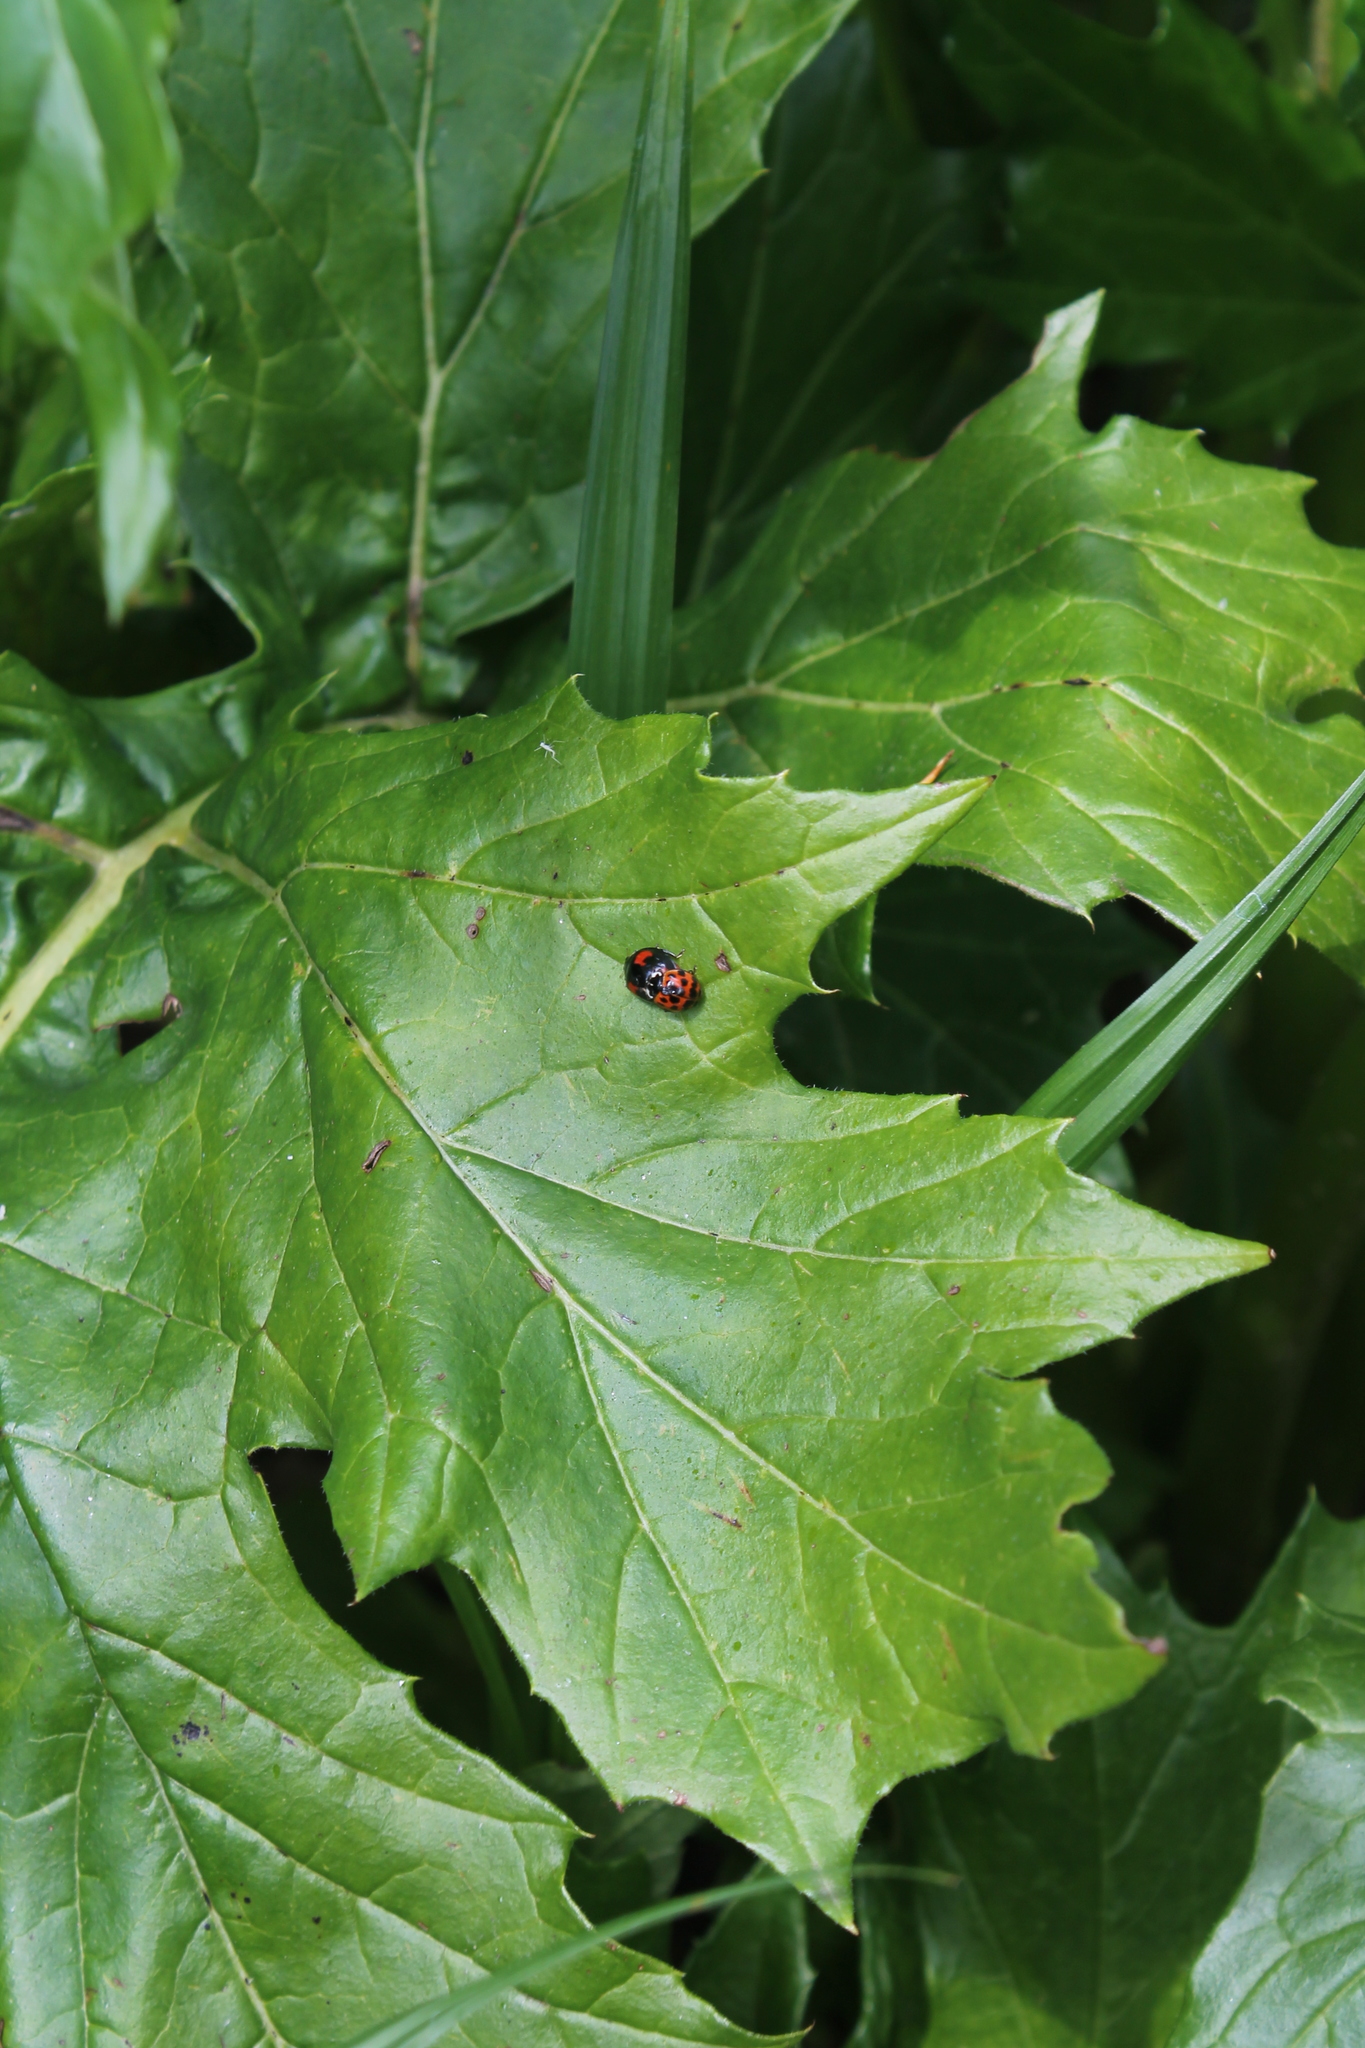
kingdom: Animalia
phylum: Arthropoda
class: Insecta
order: Coleoptera
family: Coccinellidae
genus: Harmonia
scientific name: Harmonia axyridis
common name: Harlequin ladybird
